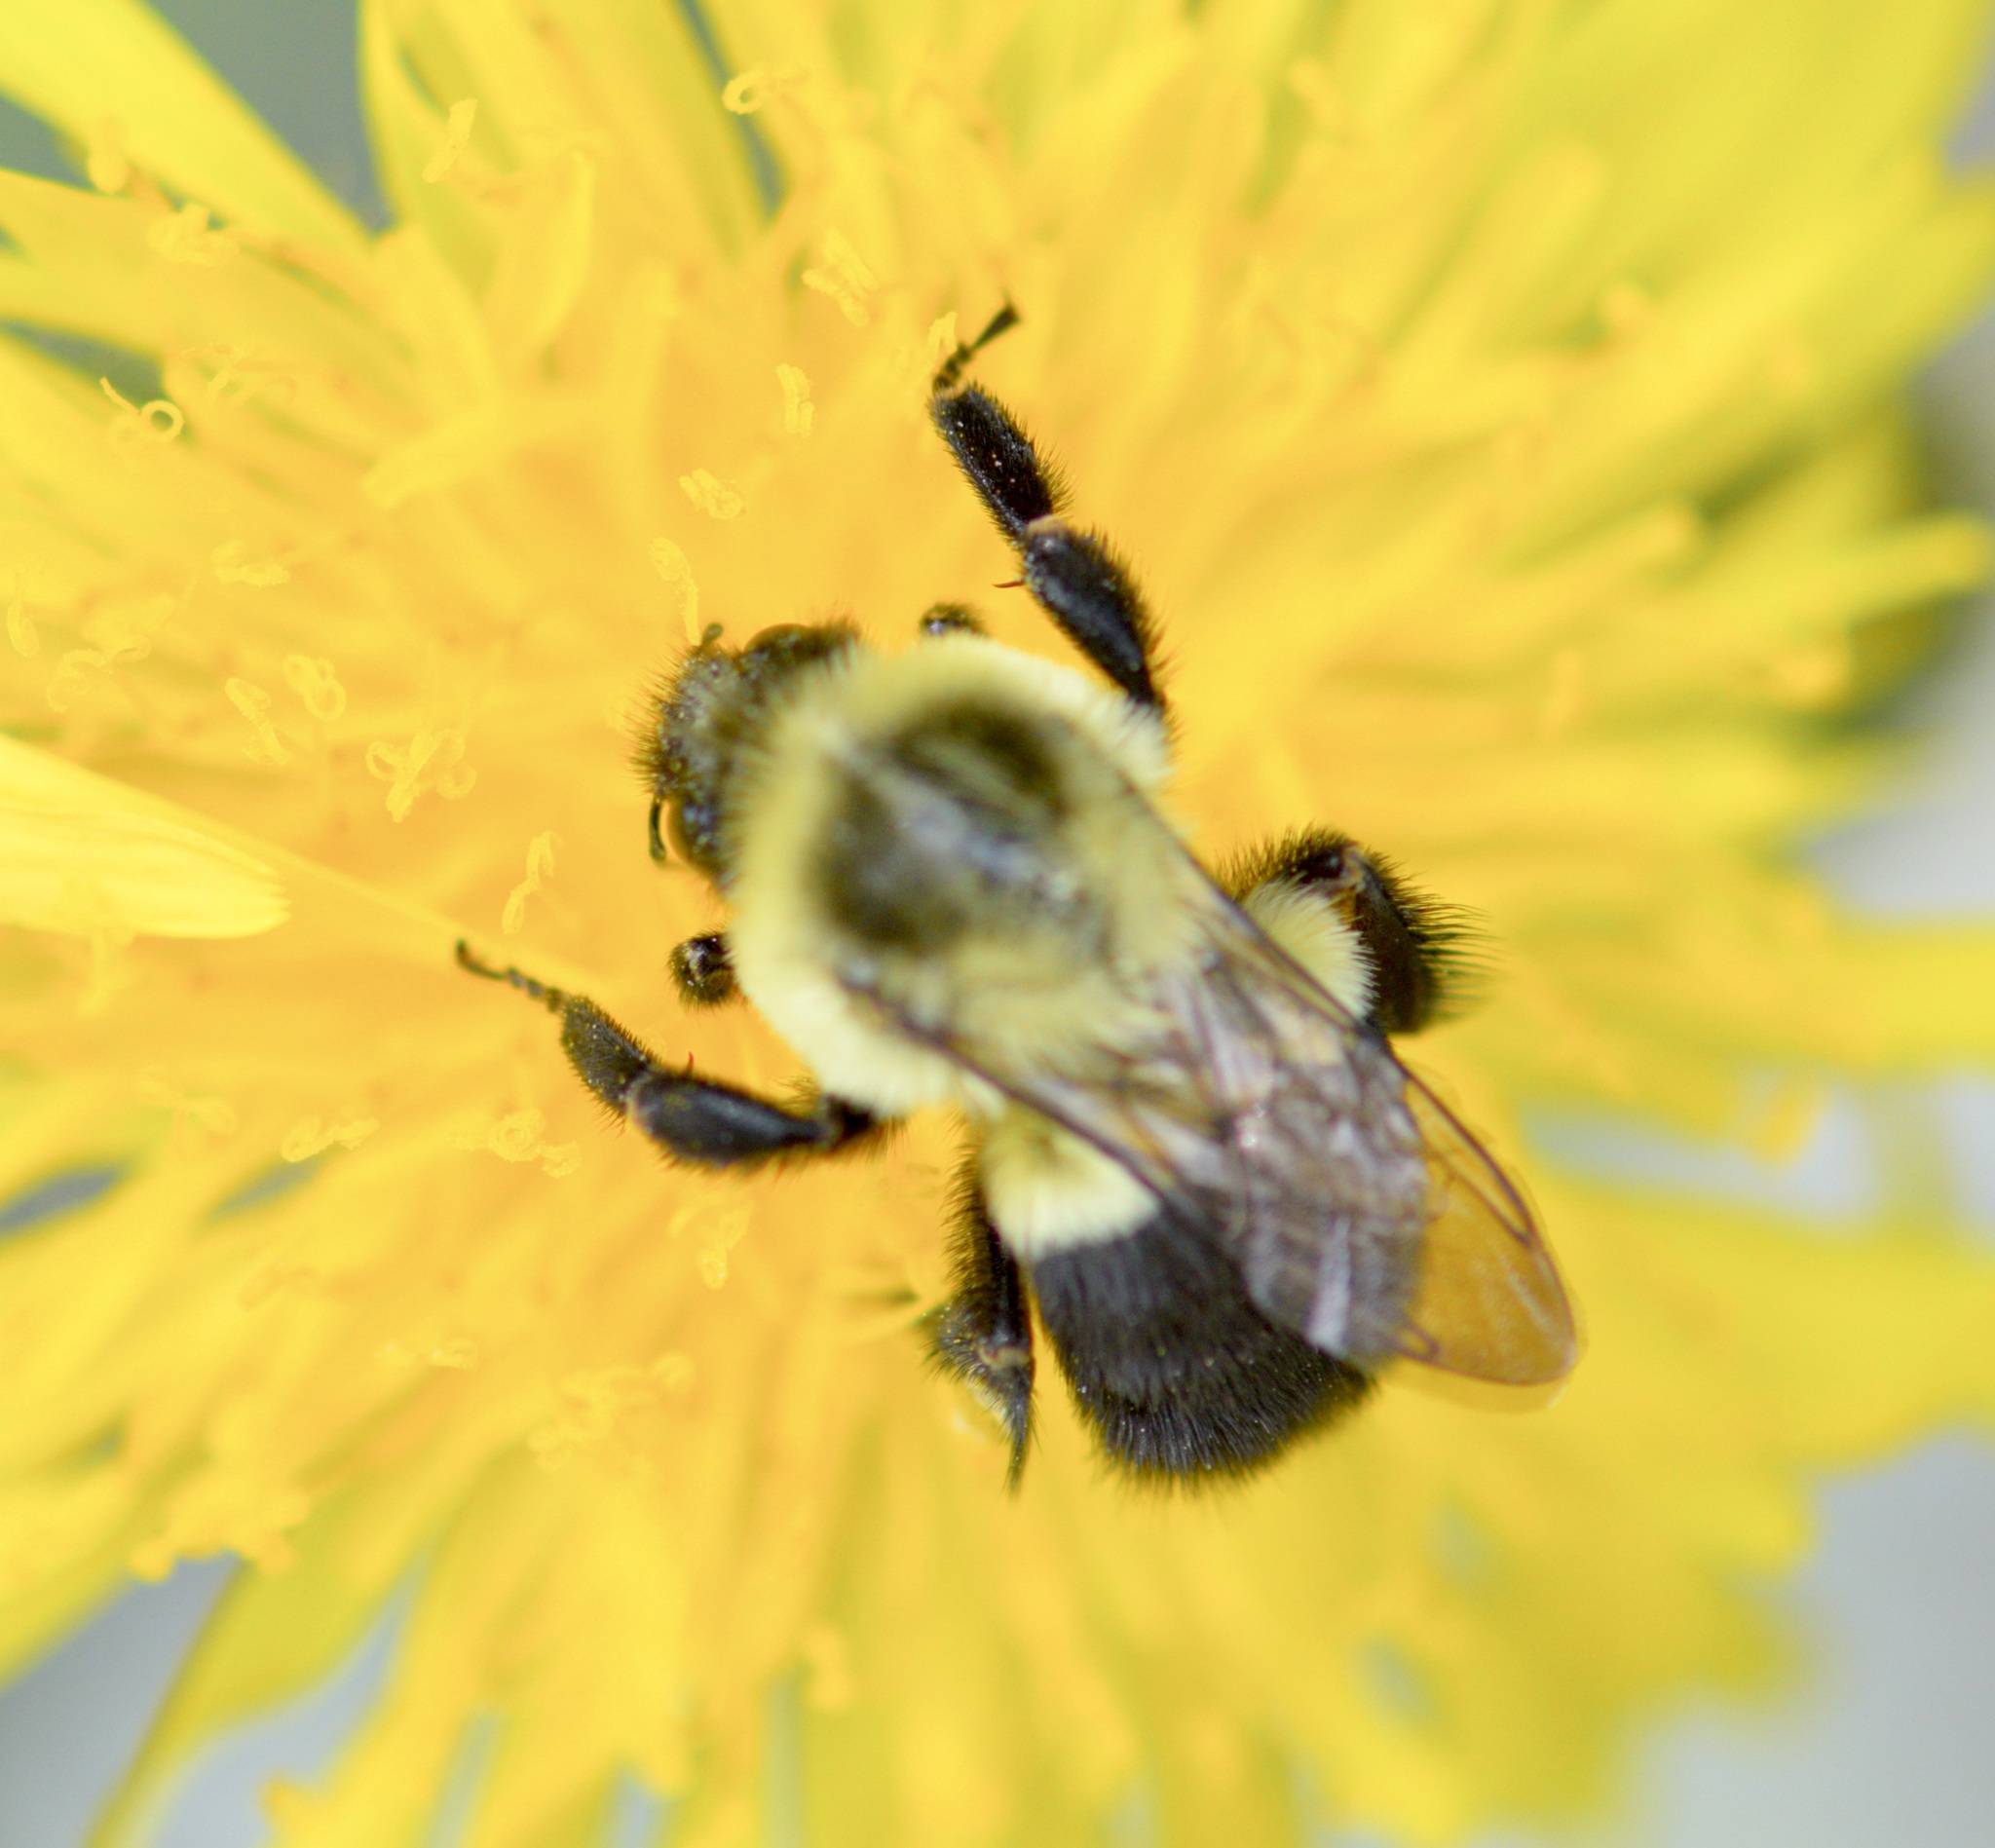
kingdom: Animalia
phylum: Arthropoda
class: Insecta
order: Hymenoptera
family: Apidae
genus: Bombus
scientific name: Bombus impatiens
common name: Common eastern bumble bee
